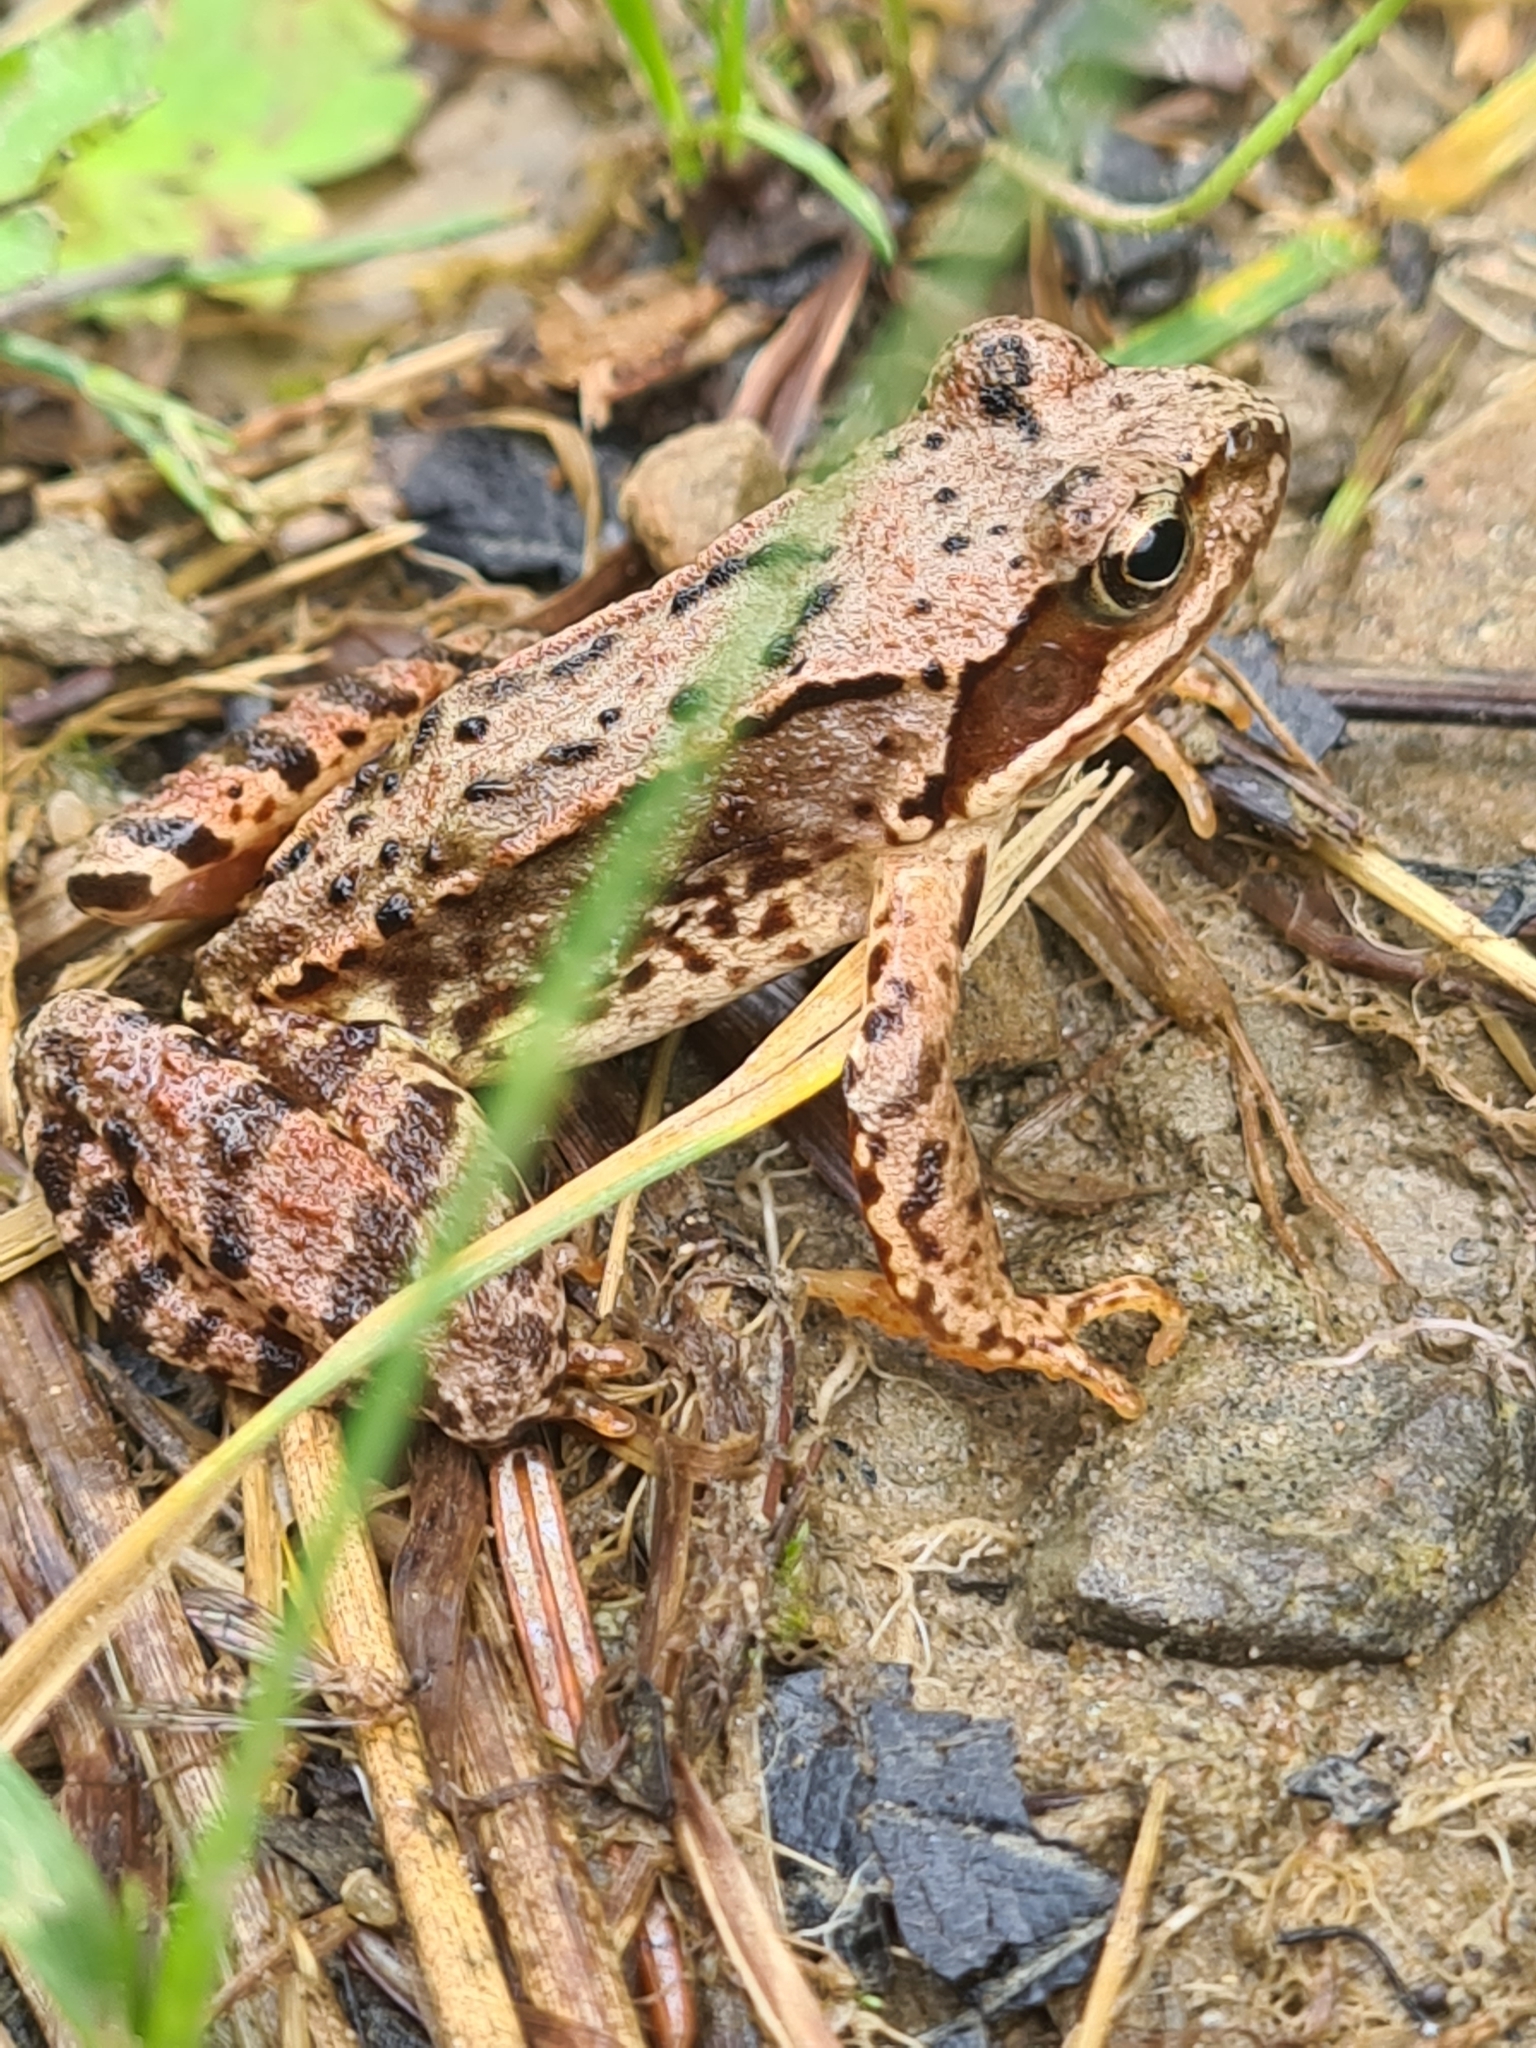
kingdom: Animalia
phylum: Chordata
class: Amphibia
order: Anura
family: Ranidae
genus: Rana
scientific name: Rana temporaria
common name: Common frog
